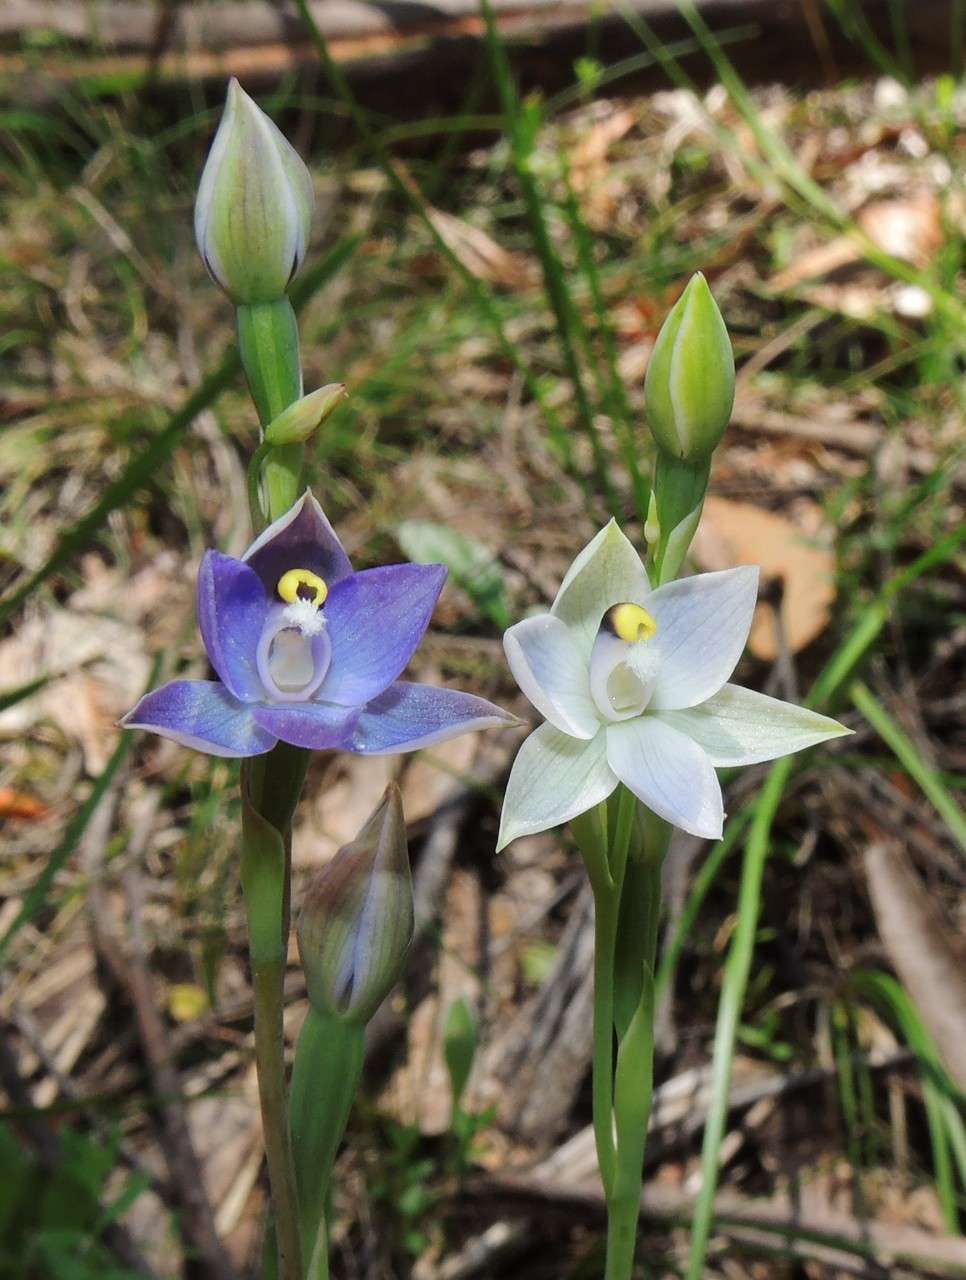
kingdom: Plantae
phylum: Tracheophyta
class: Liliopsida
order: Asparagales
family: Orchidaceae
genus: Thelymitra
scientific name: Thelymitra nuda
